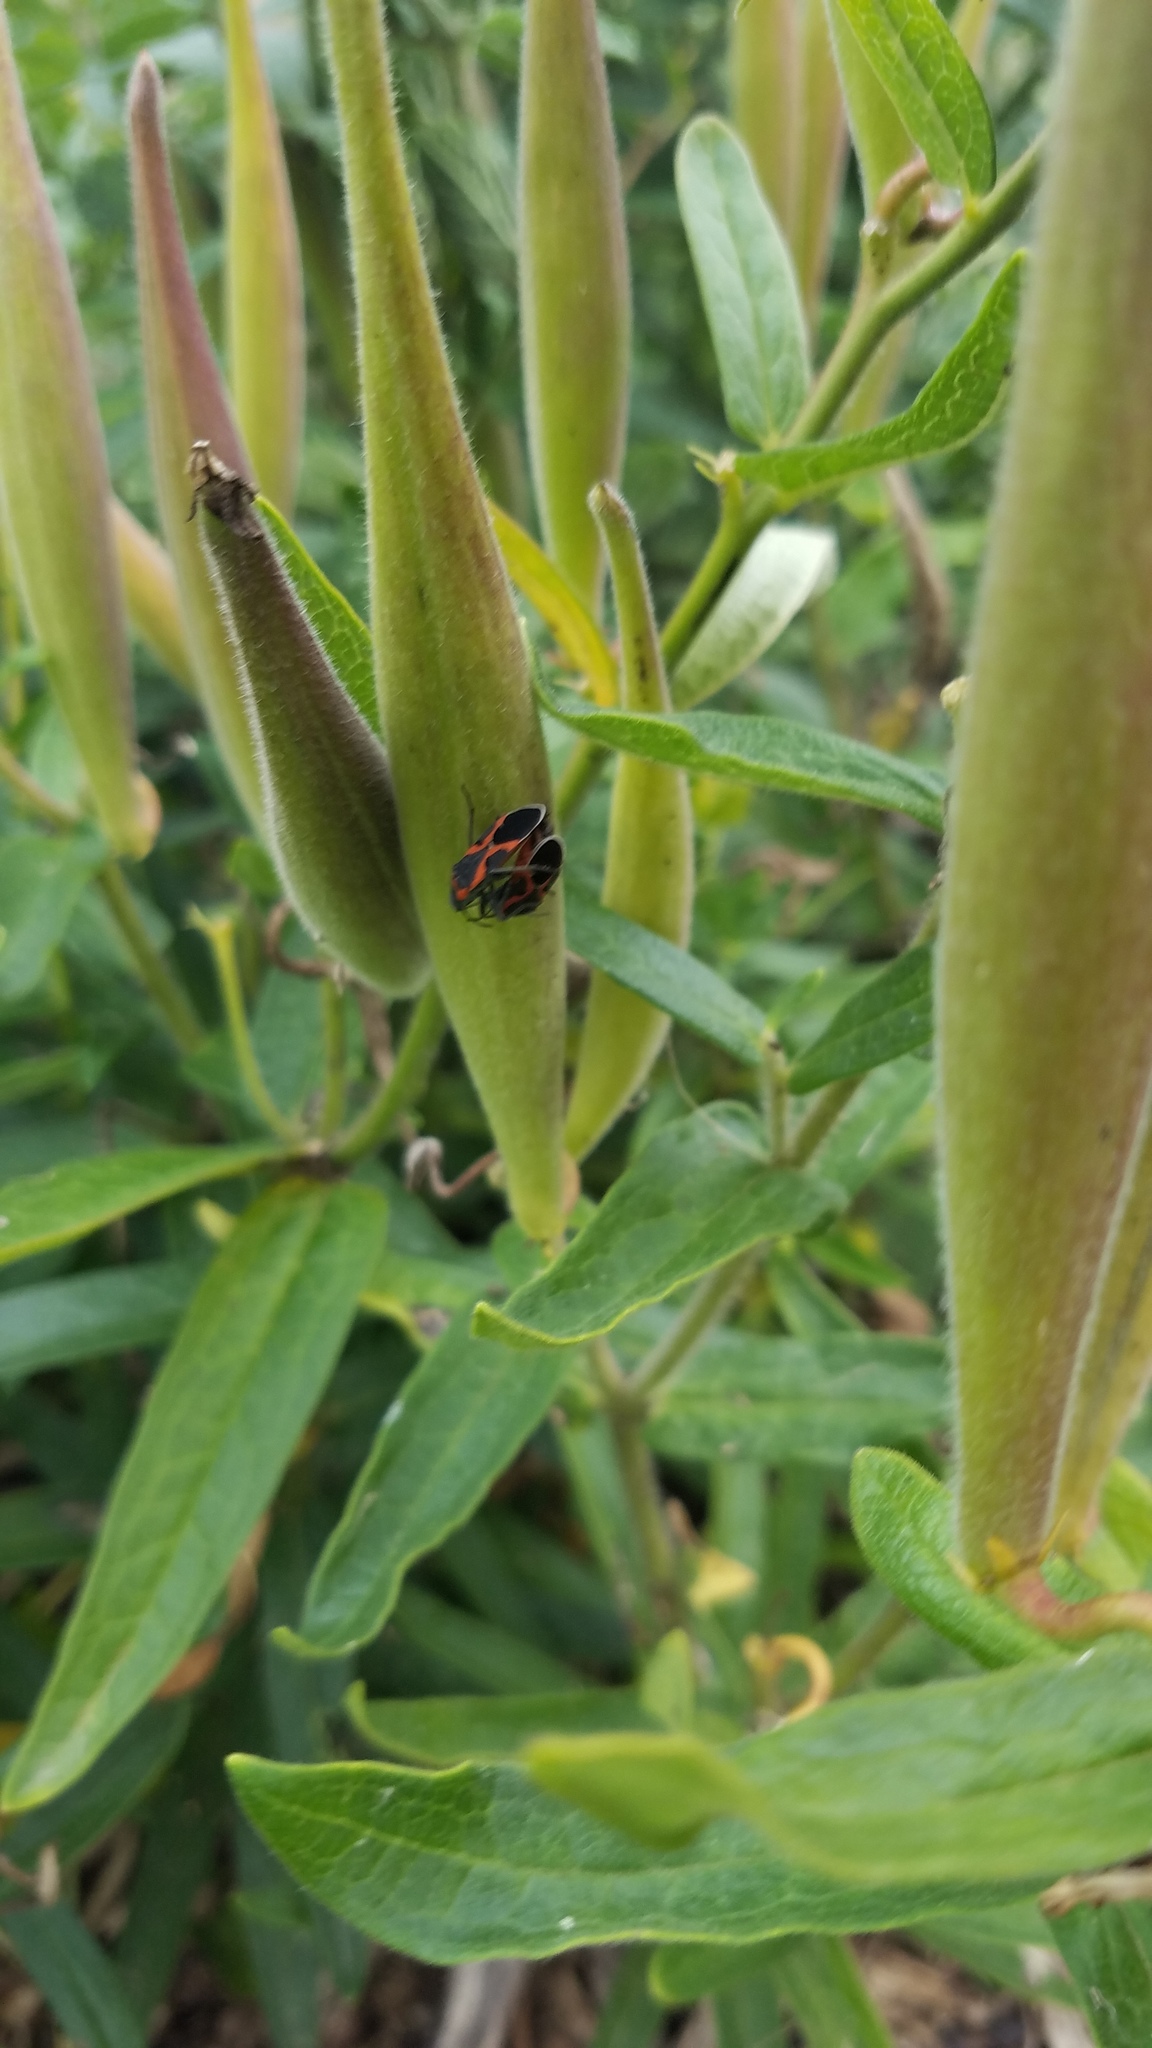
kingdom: Animalia
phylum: Arthropoda
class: Insecta
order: Hemiptera
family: Lygaeidae
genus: Lygaeus
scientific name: Lygaeus kalmii
